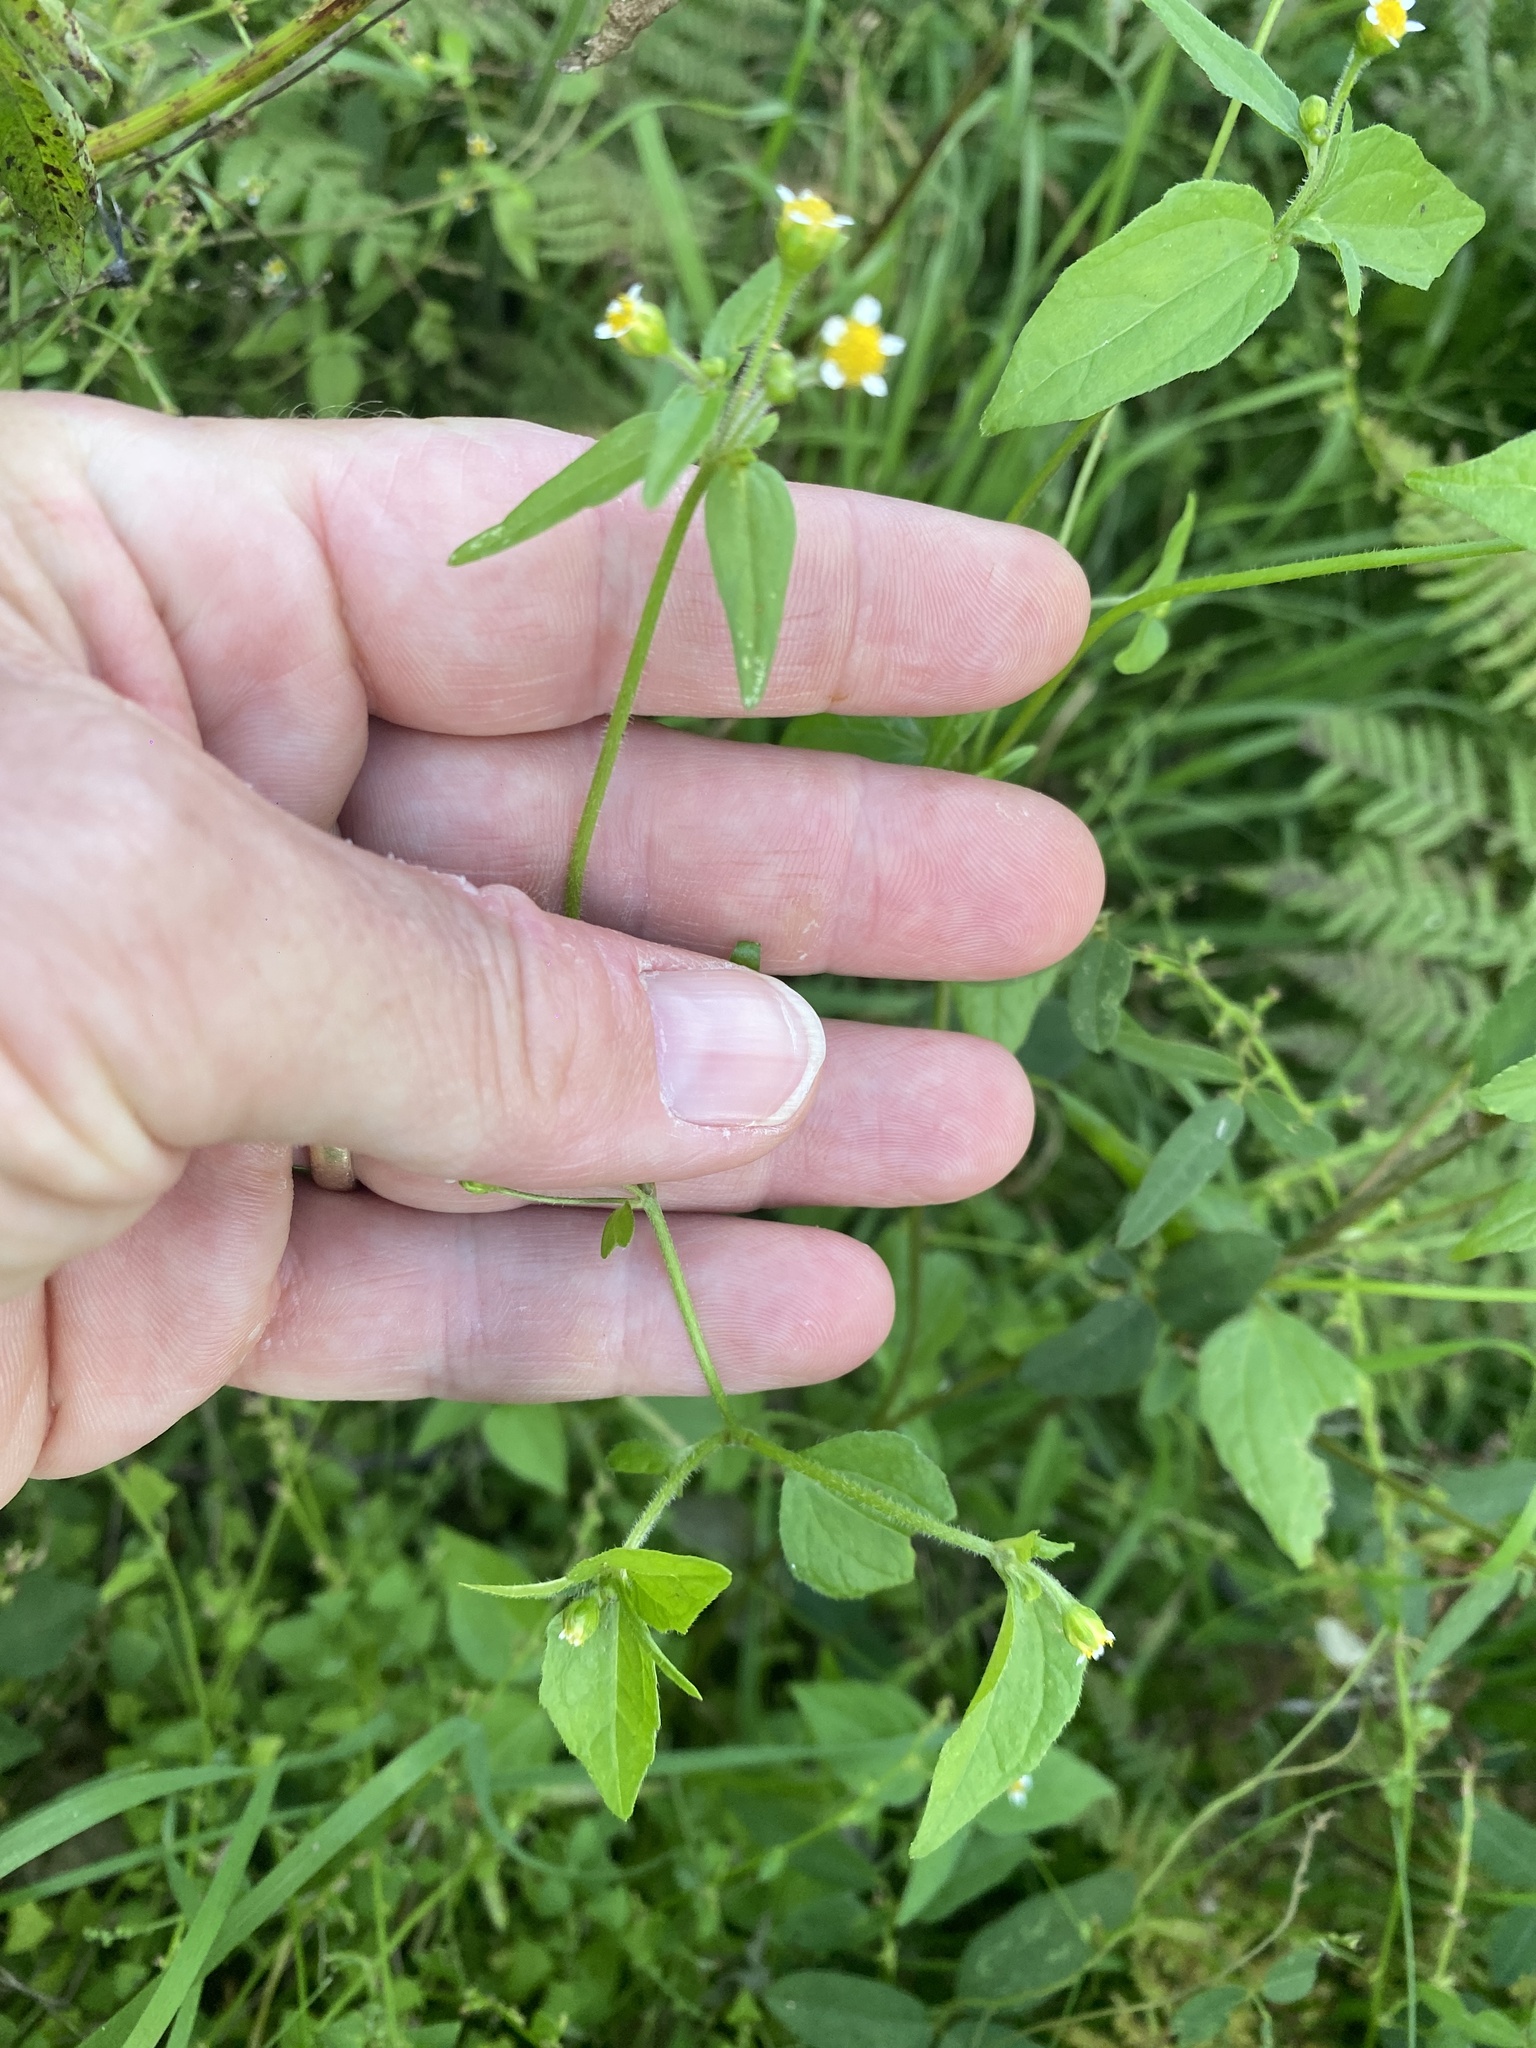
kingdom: Plantae
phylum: Tracheophyta
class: Magnoliopsida
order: Asterales
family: Asteraceae
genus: Galinsoga
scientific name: Galinsoga parviflora
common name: Gallant soldier
